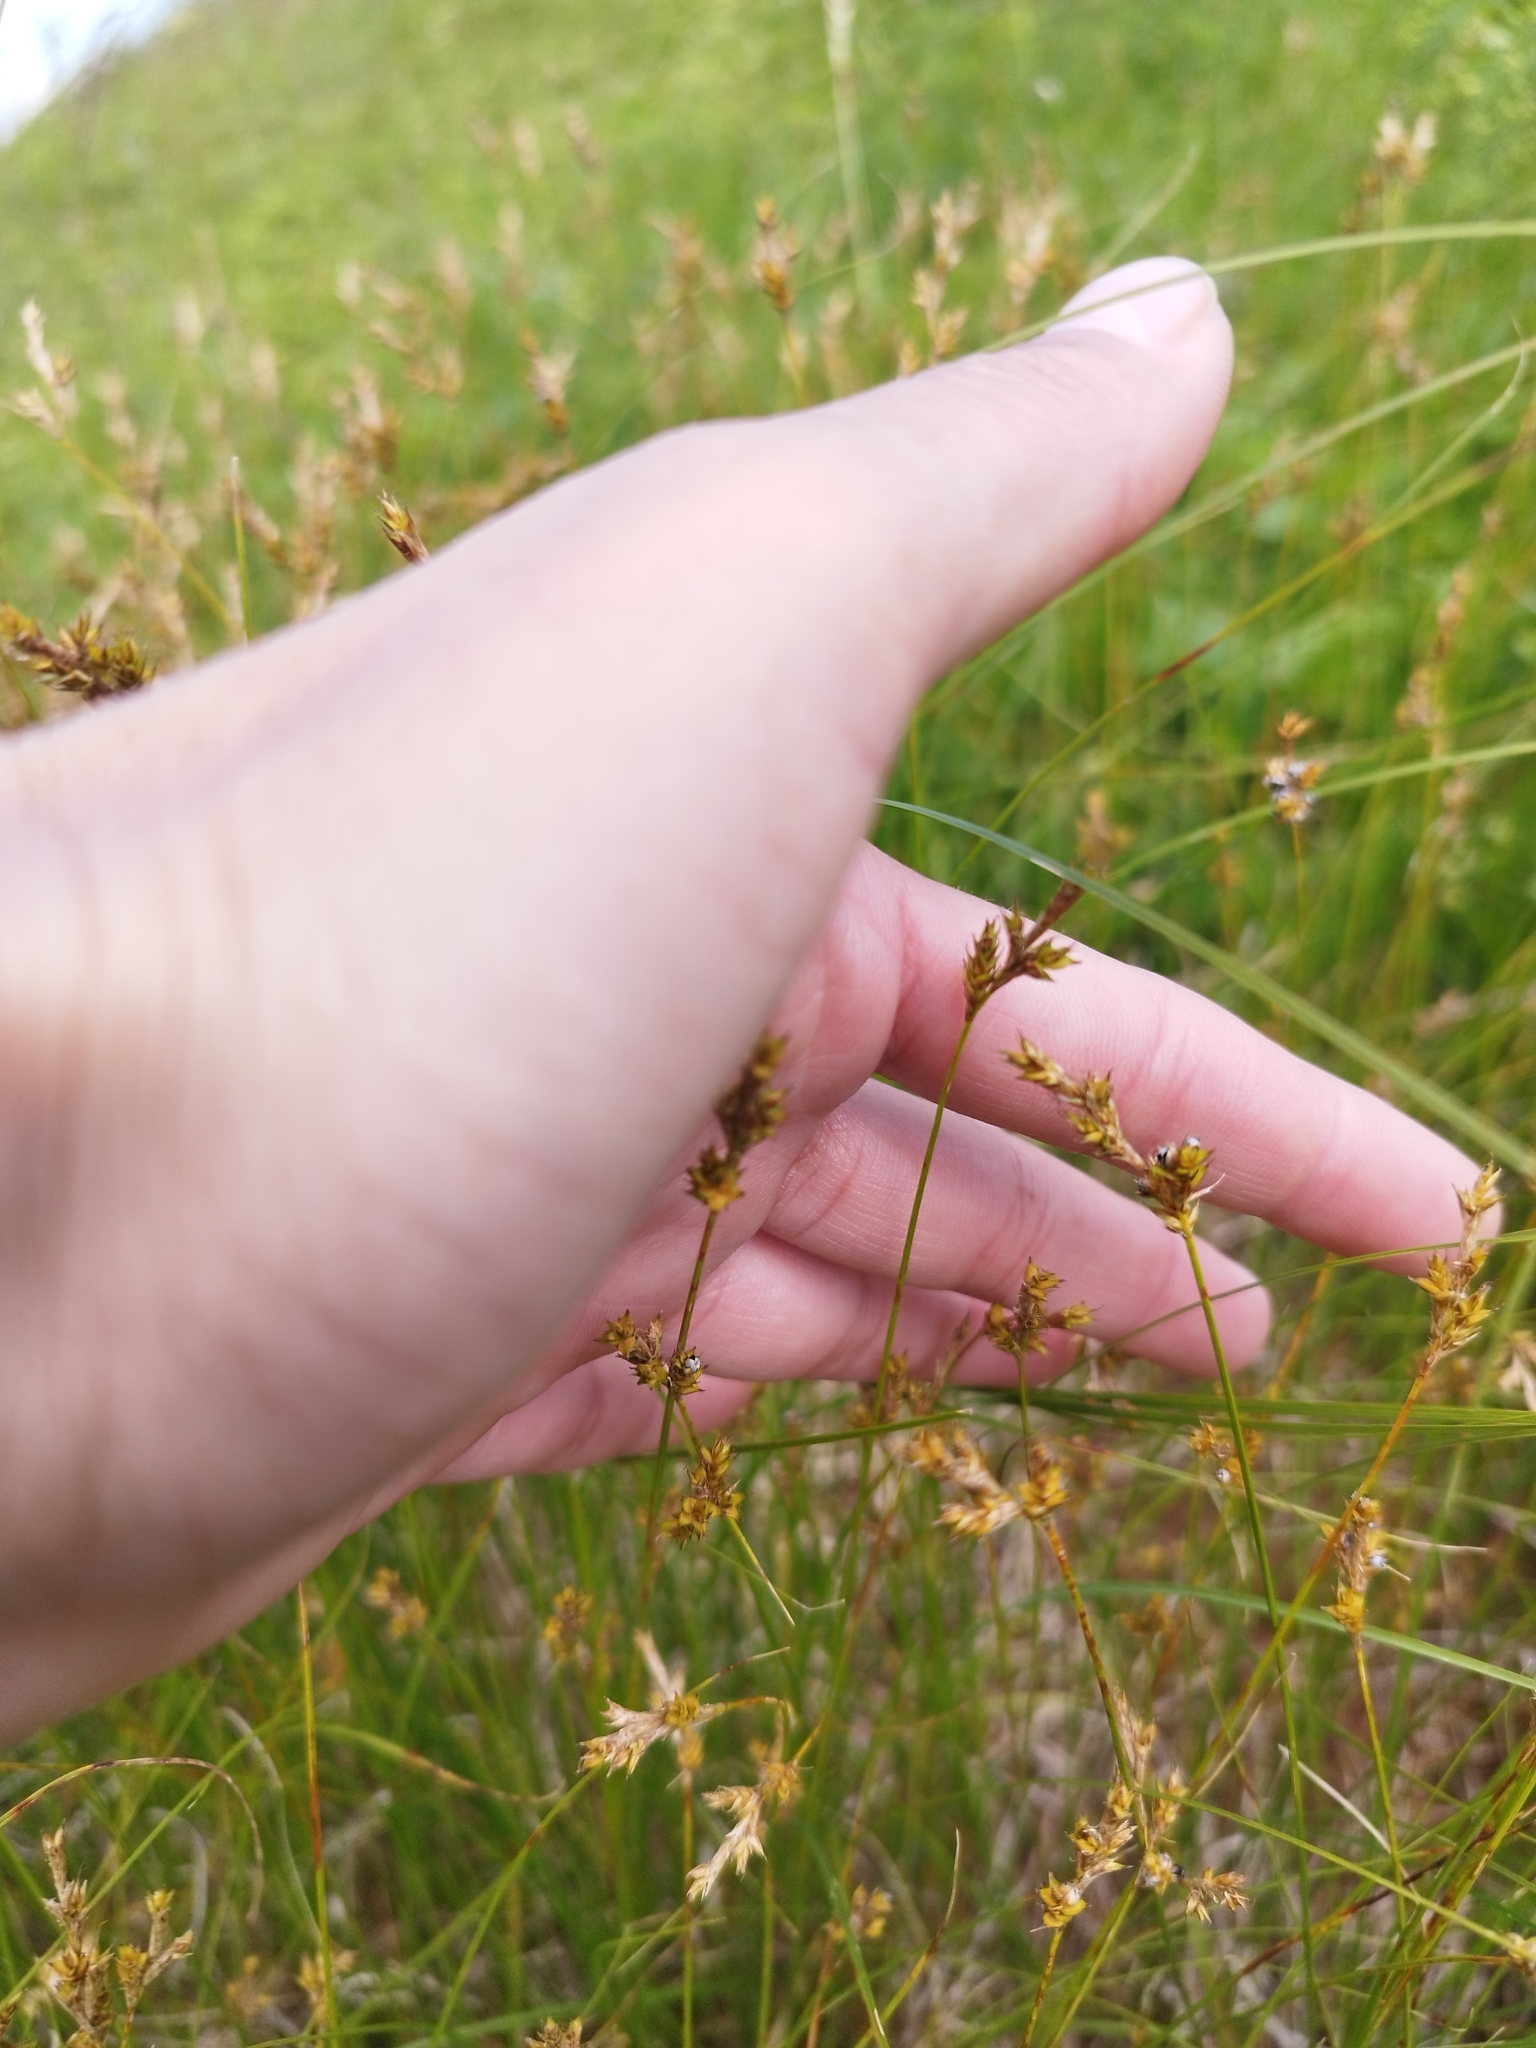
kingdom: Plantae
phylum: Tracheophyta
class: Liliopsida
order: Poales
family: Cyperaceae
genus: Carex
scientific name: Carex praecox
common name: Early sedge
